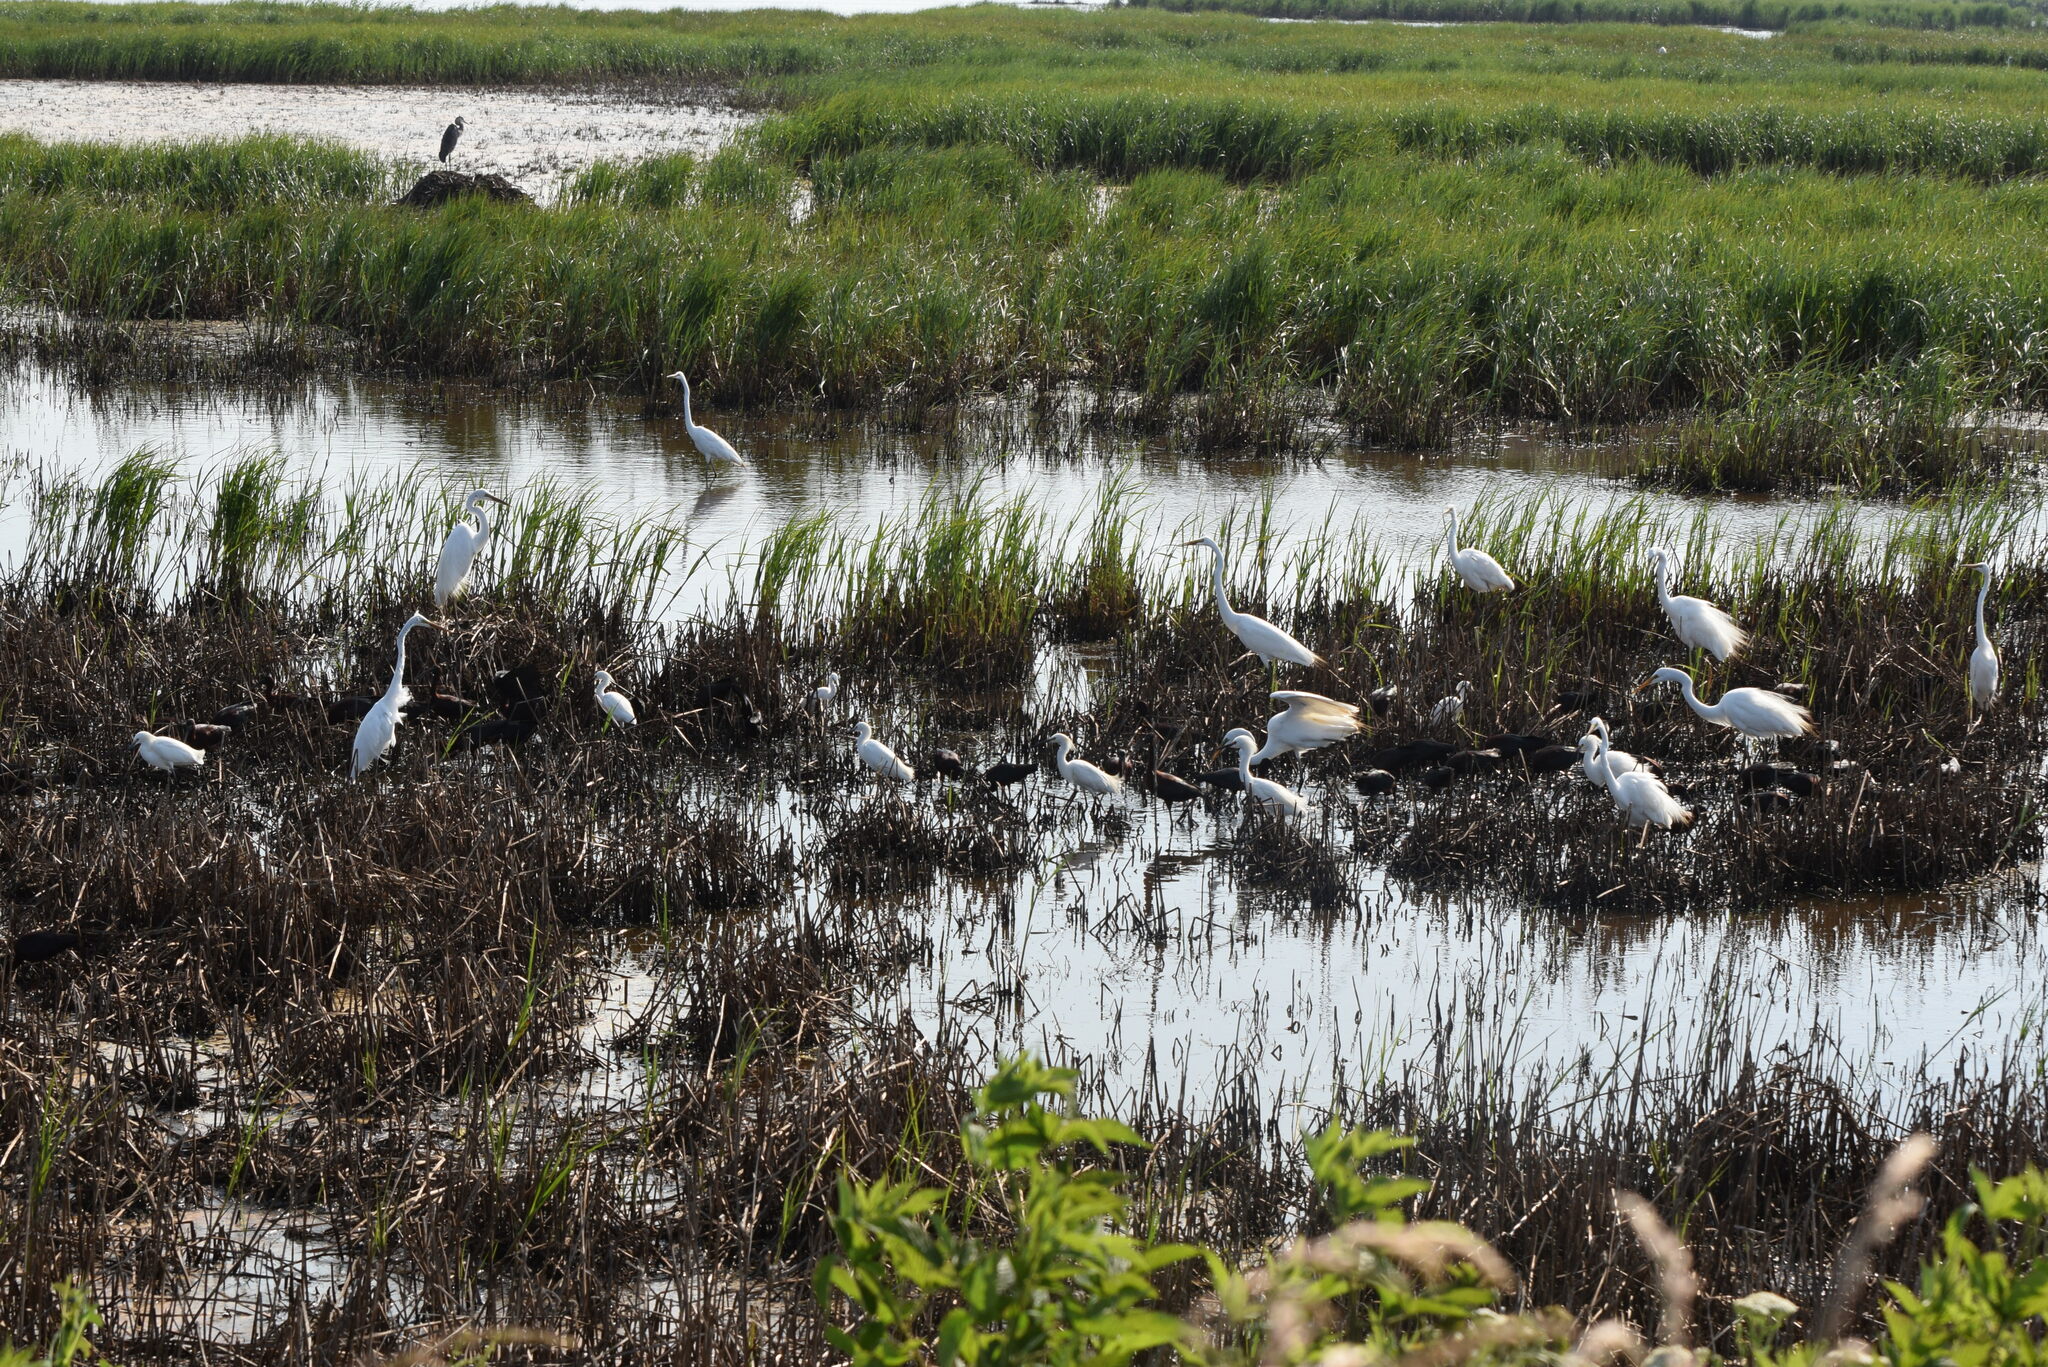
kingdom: Animalia
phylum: Chordata
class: Aves
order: Pelecaniformes
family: Ardeidae
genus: Ardea
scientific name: Ardea alba
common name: Great egret
